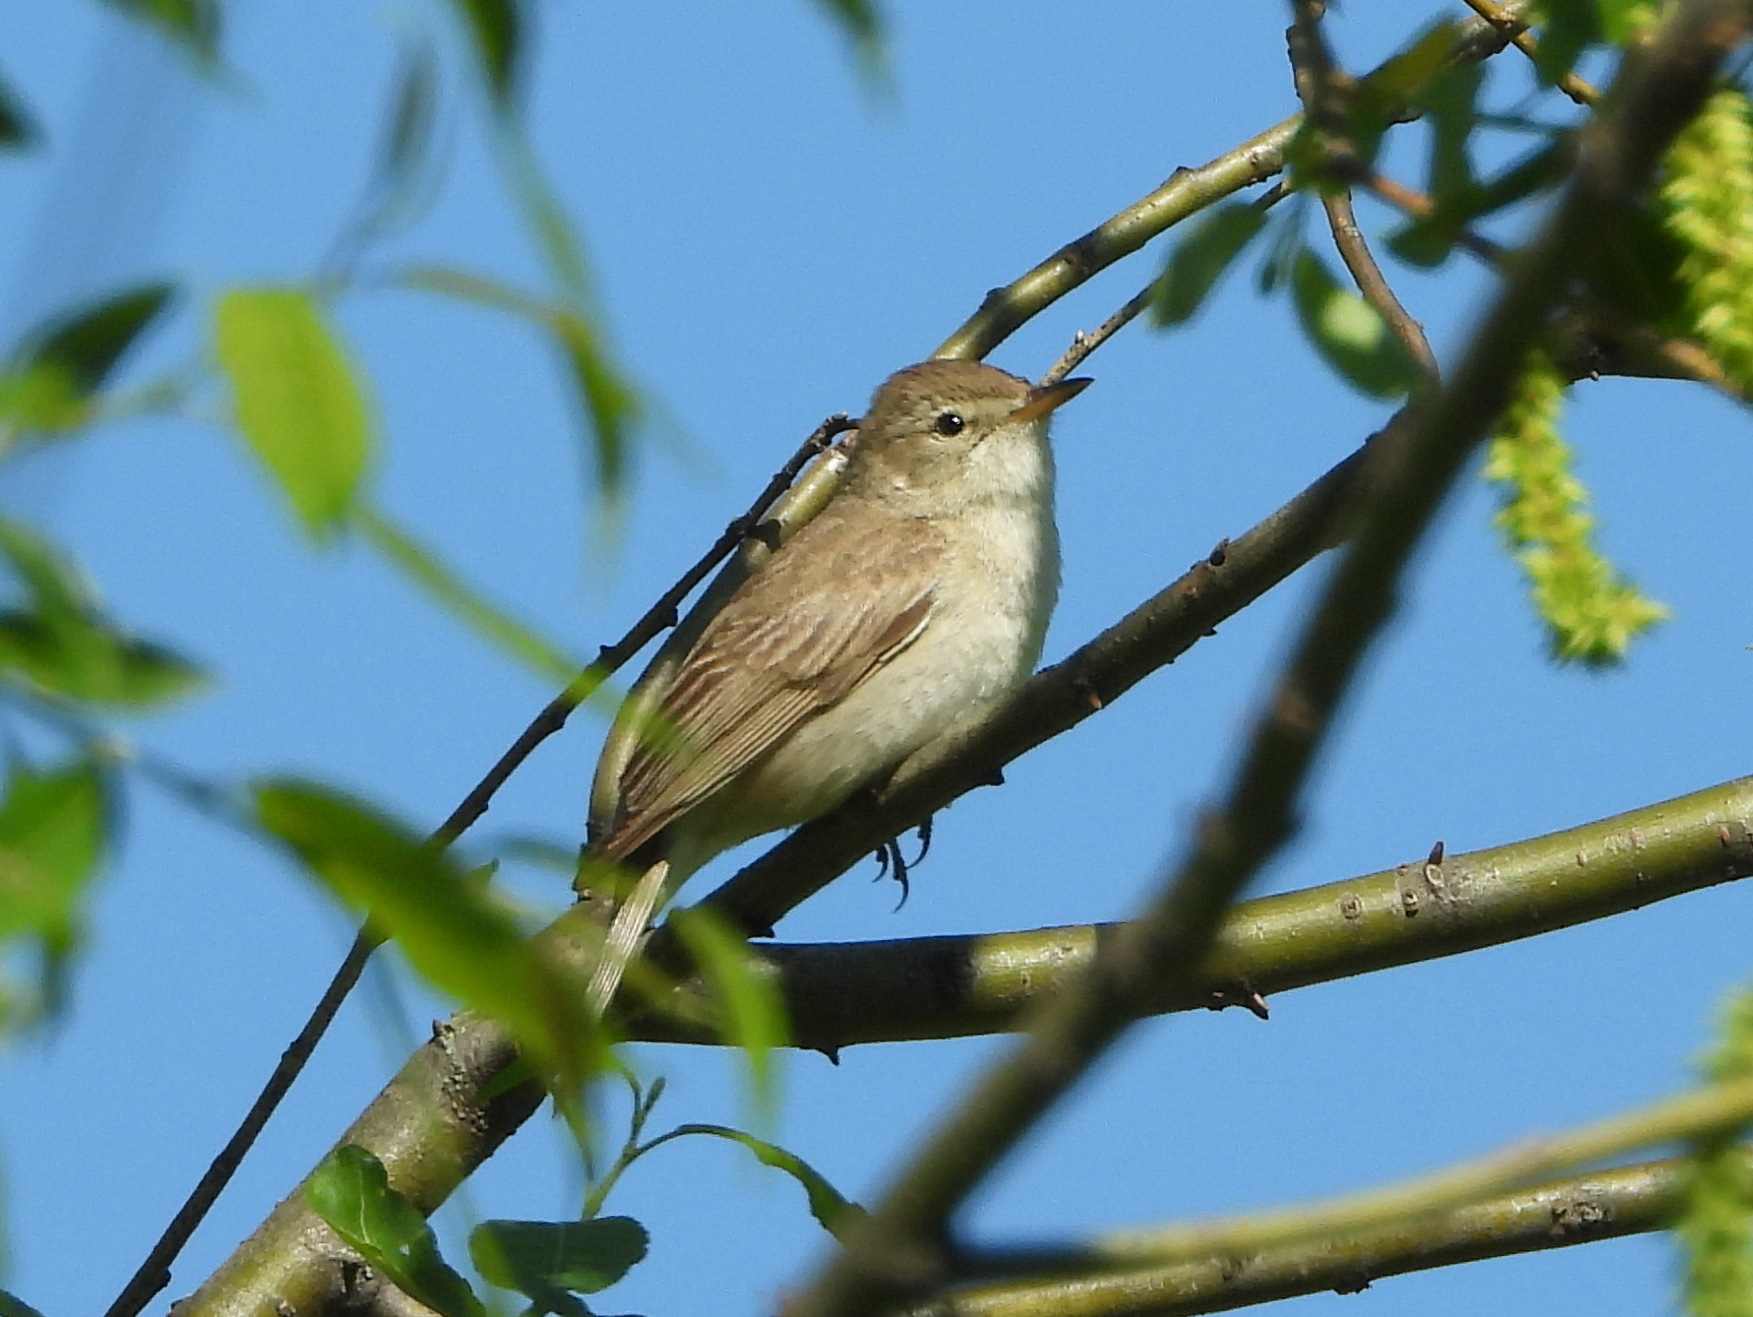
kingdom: Animalia
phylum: Chordata
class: Aves
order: Passeriformes
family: Acrocephalidae
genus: Iduna
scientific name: Iduna caligata
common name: Booted warbler
